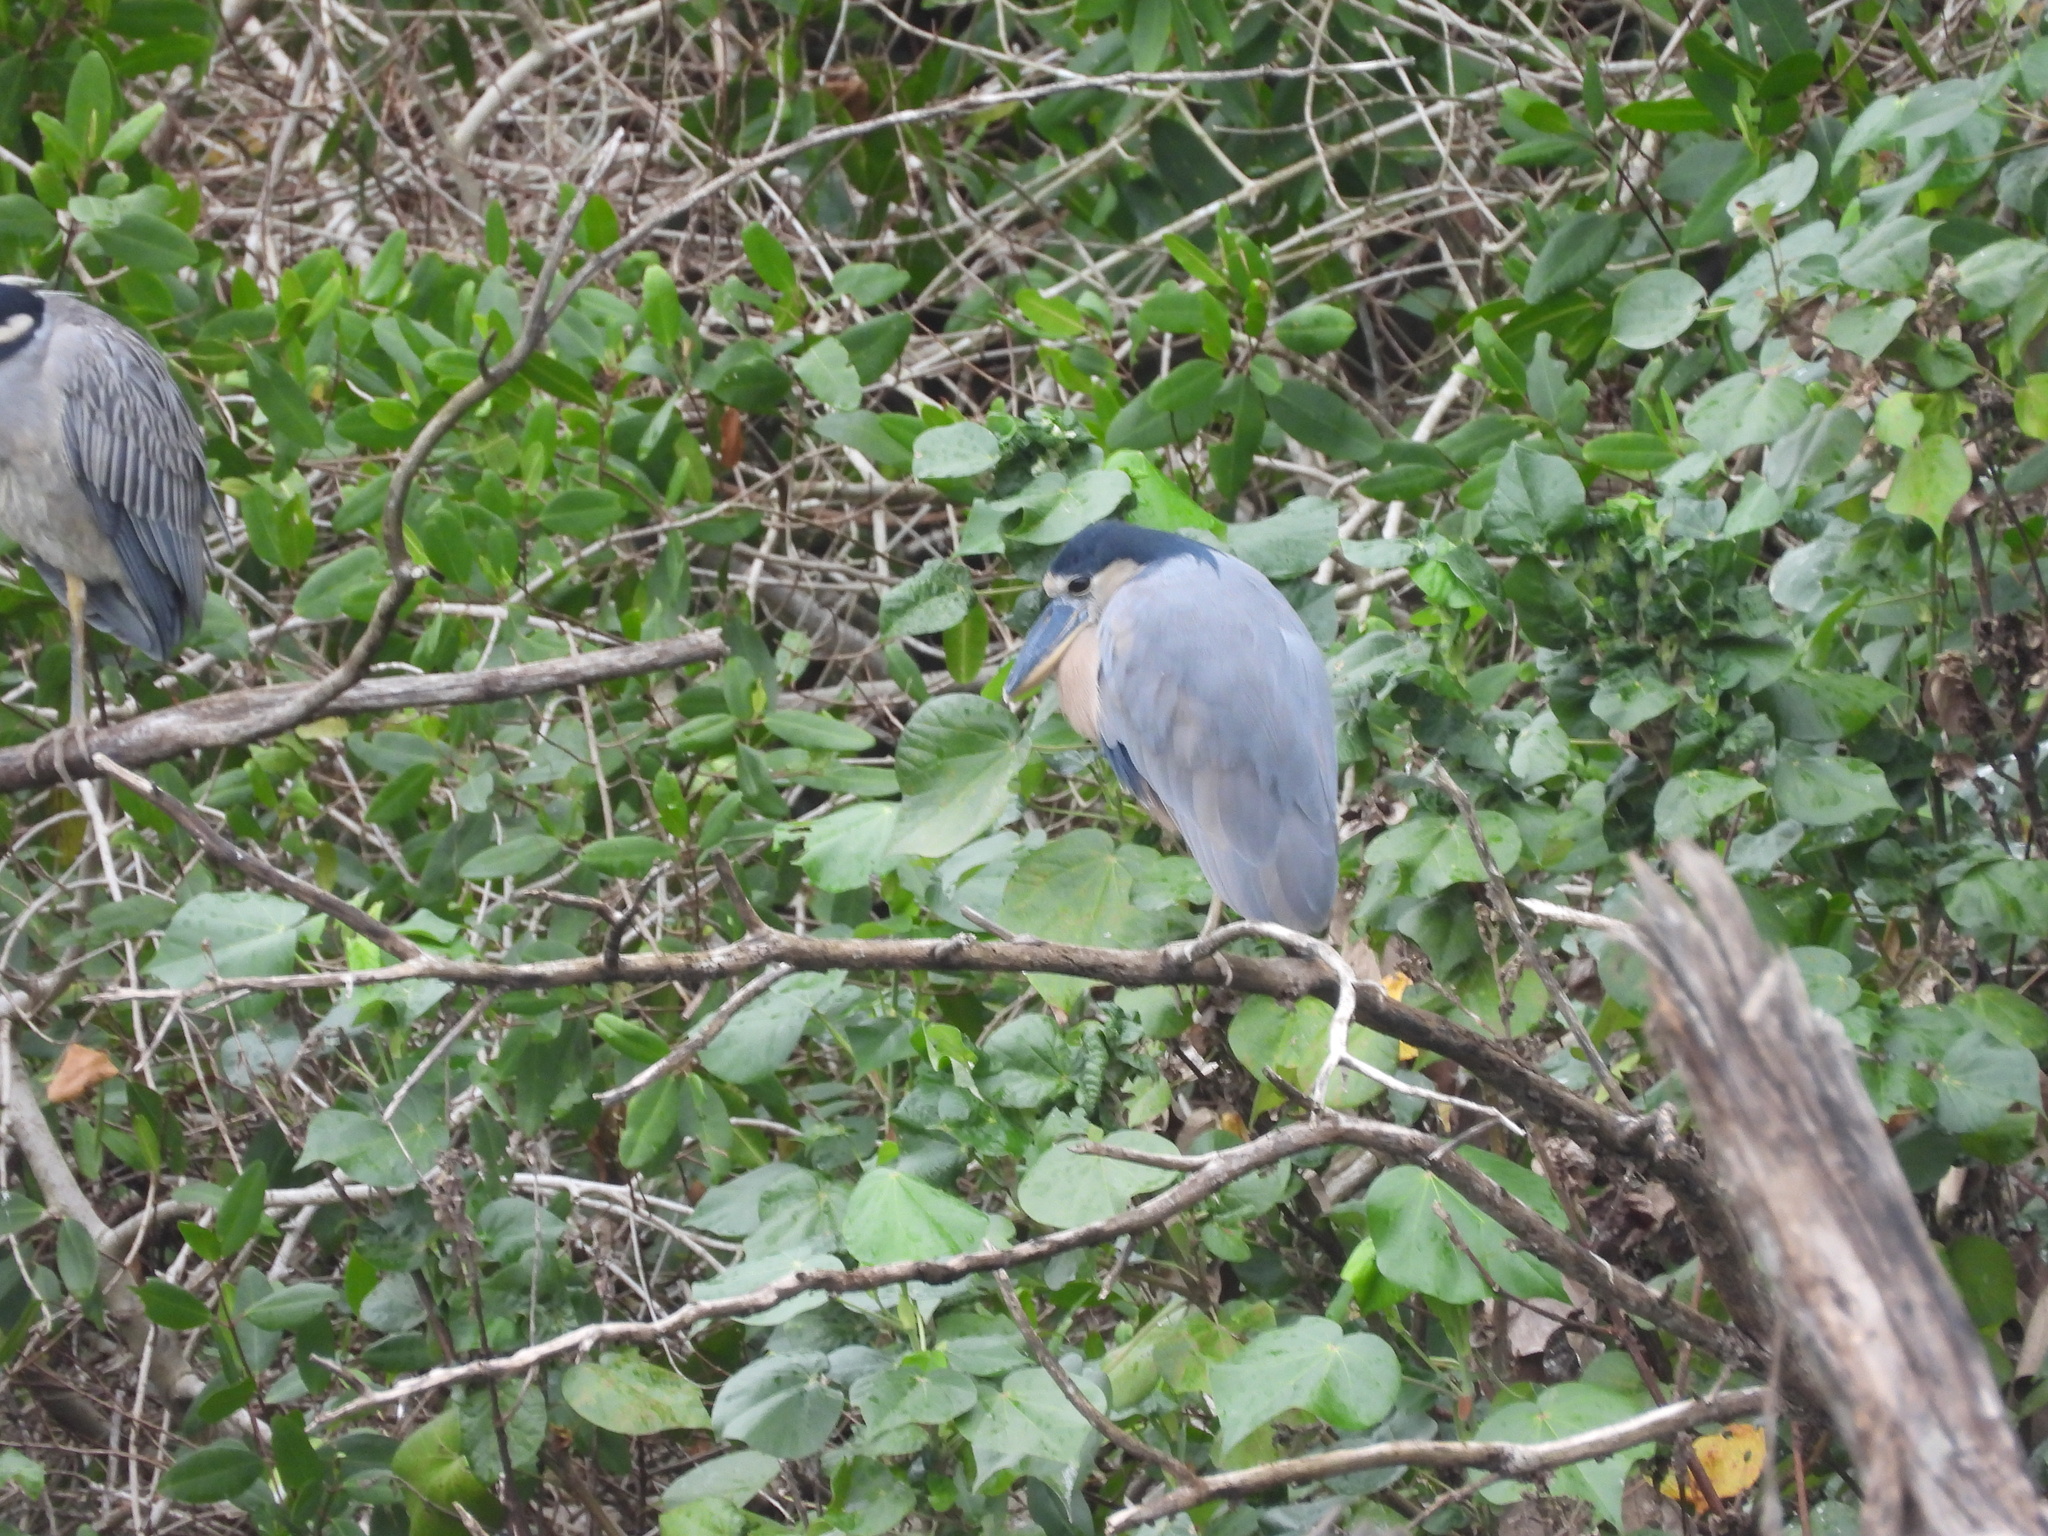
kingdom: Animalia
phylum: Chordata
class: Aves
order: Pelecaniformes
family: Ardeidae
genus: Cochlearius
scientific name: Cochlearius cochlearius
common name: Boat-billed heron
